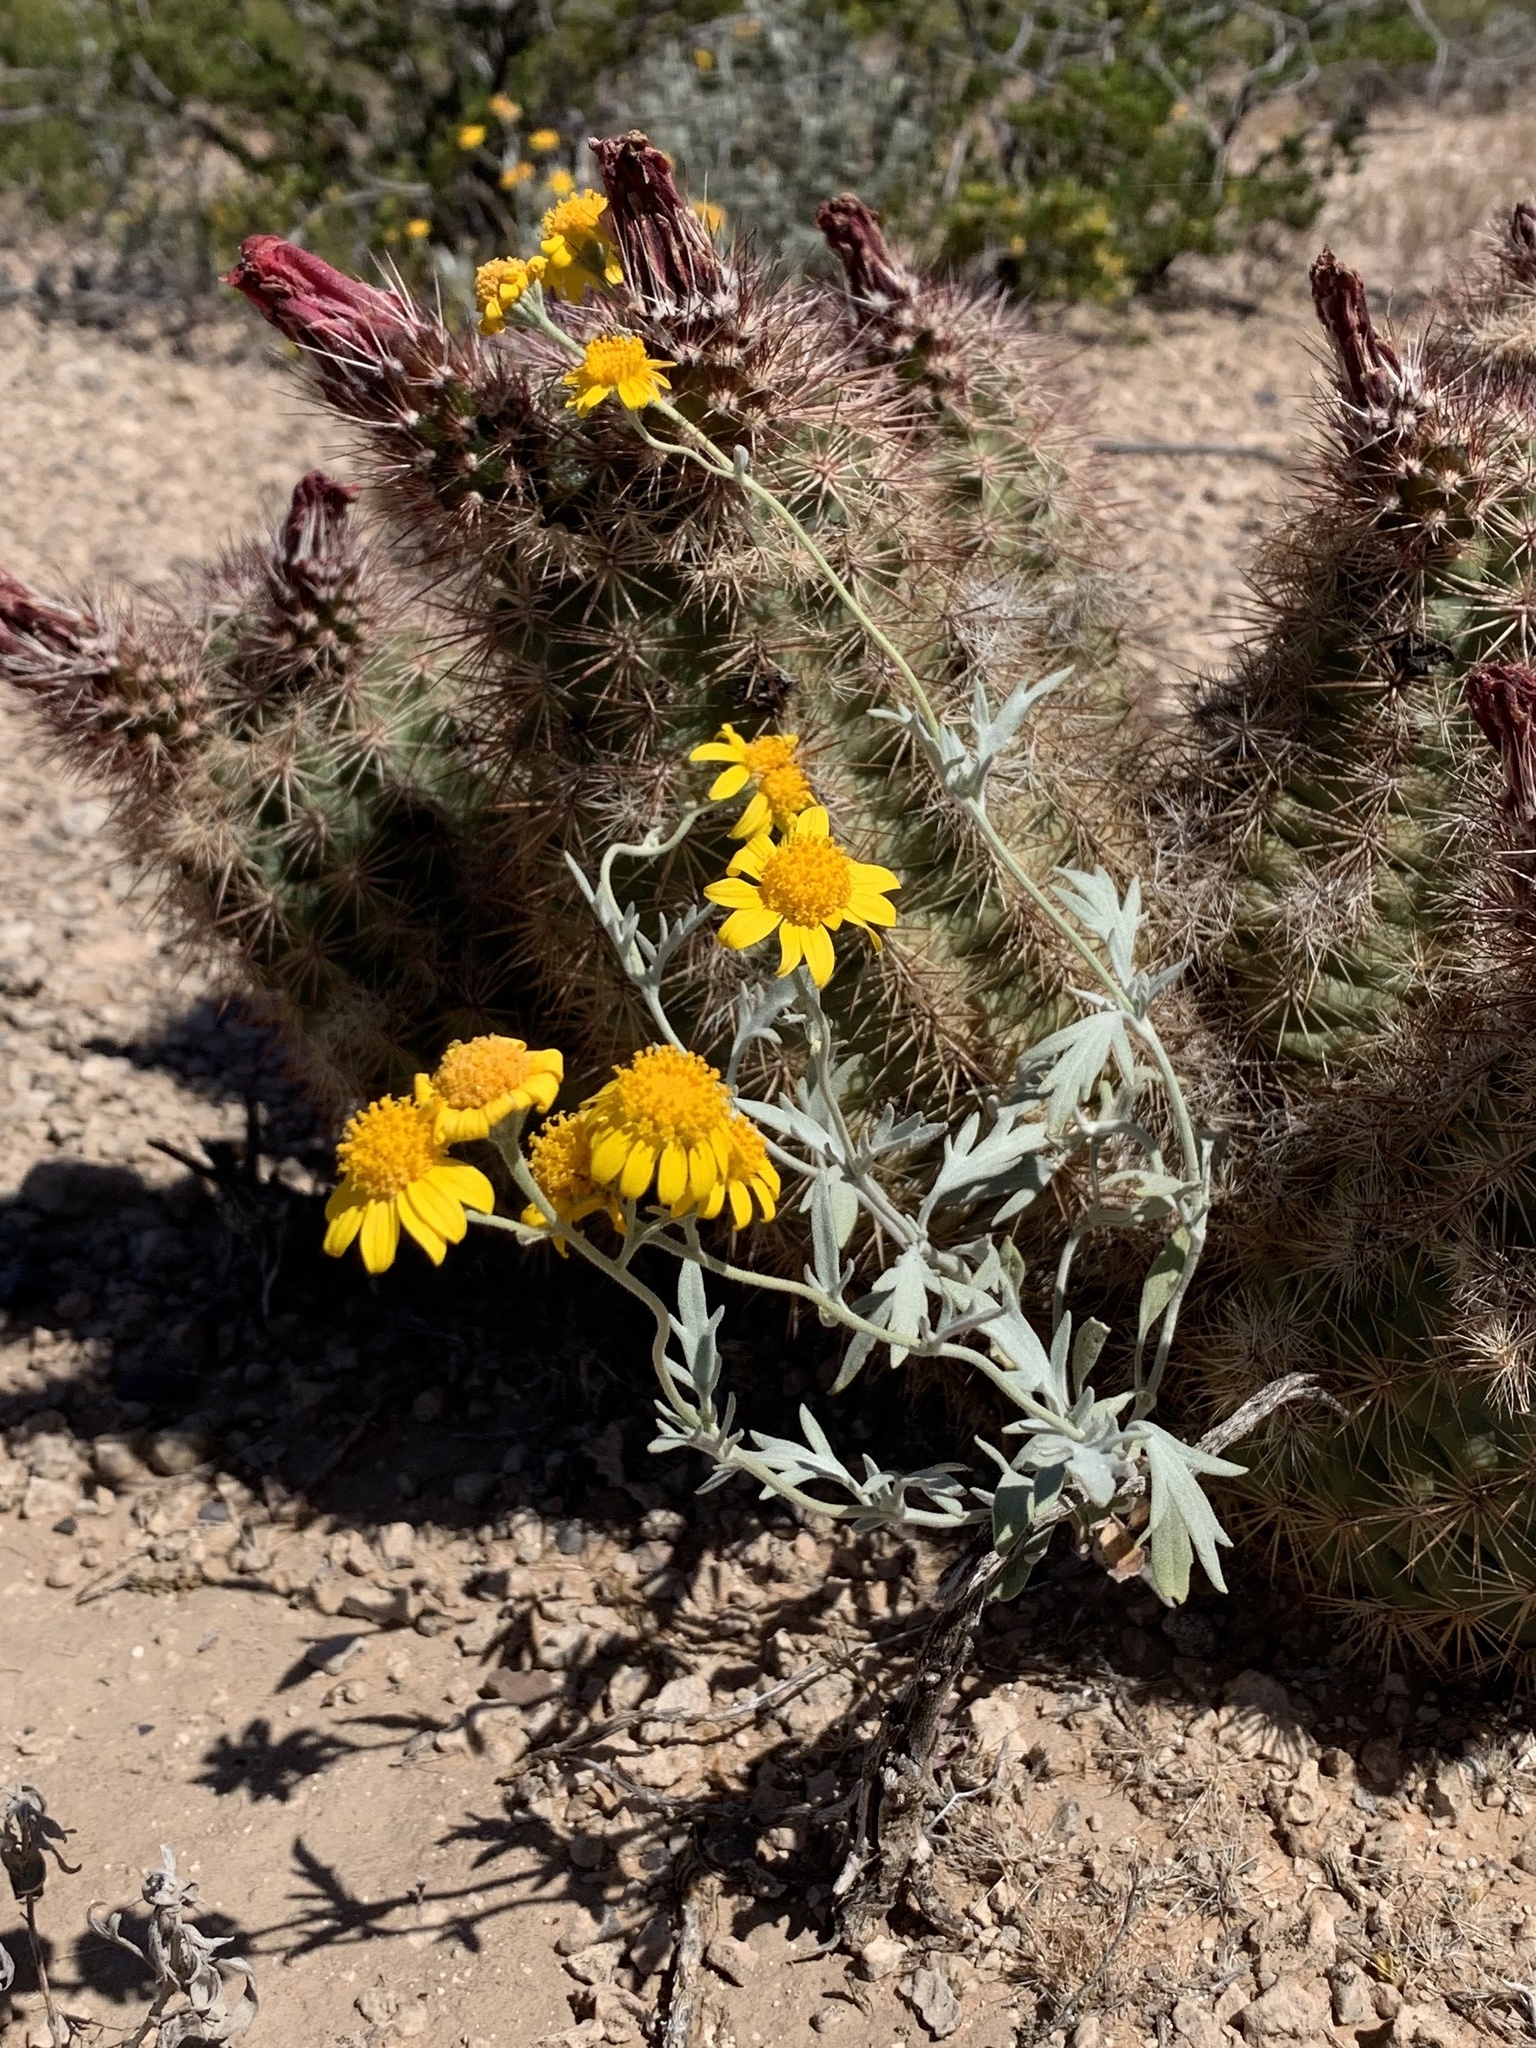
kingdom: Plantae
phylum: Tracheophyta
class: Magnoliopsida
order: Asterales
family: Asteraceae
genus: Picradeniopsis
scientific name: Picradeniopsis absinthifolia
